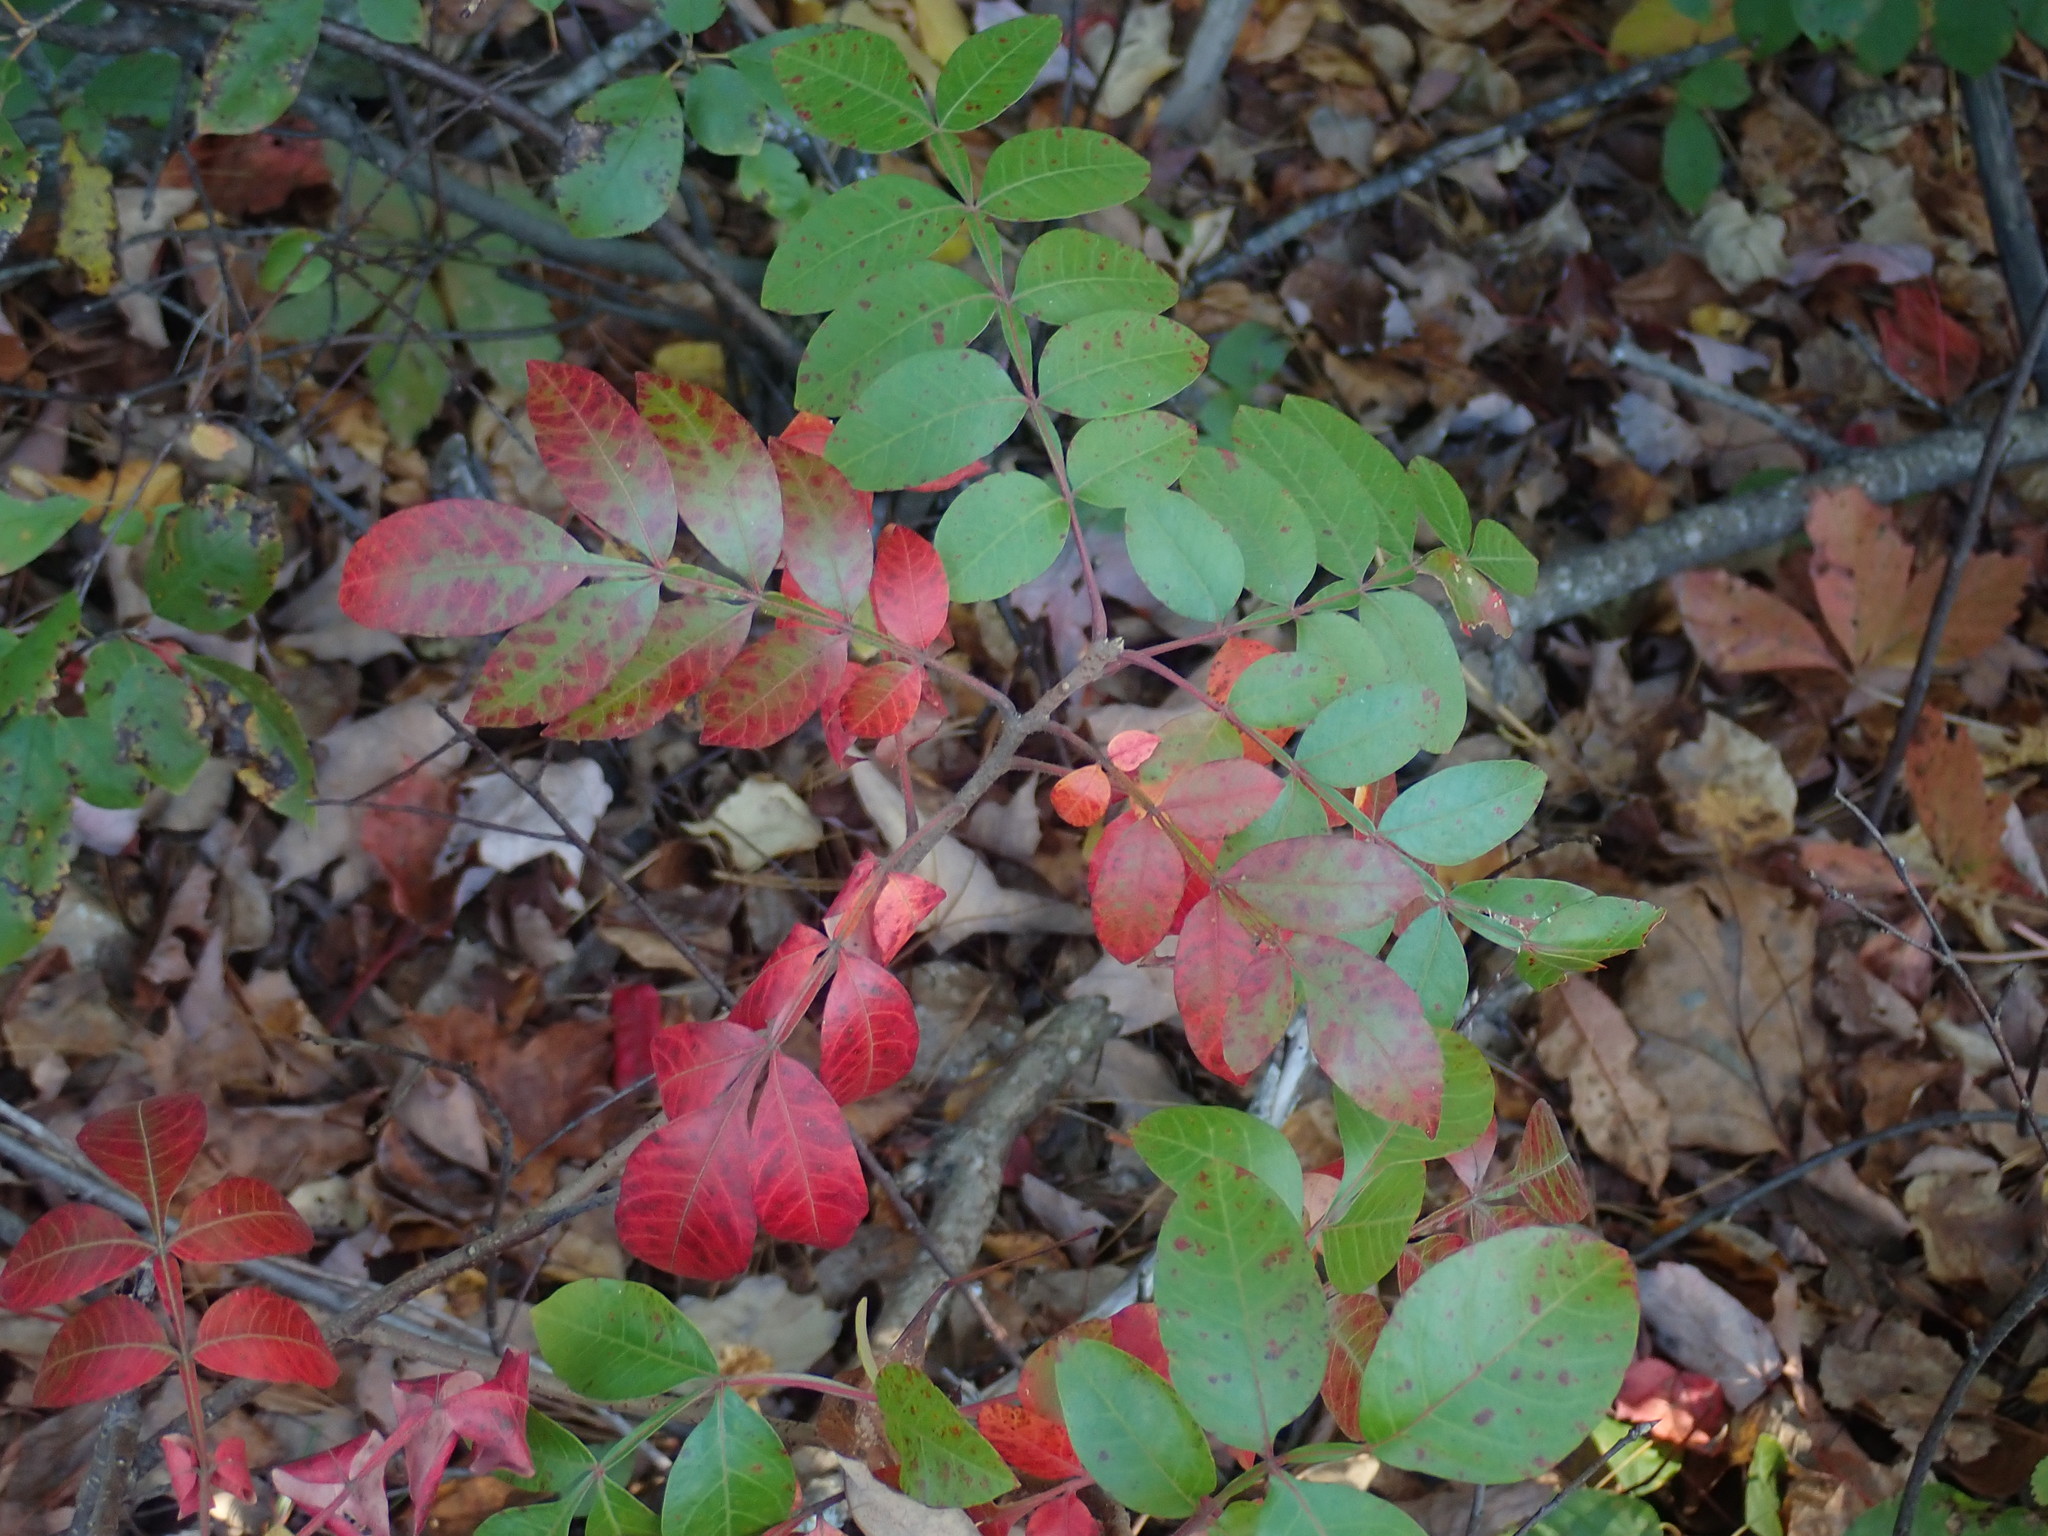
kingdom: Plantae
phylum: Tracheophyta
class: Magnoliopsida
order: Sapindales
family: Anacardiaceae
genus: Rhus
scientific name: Rhus copallina
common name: Shining sumac
